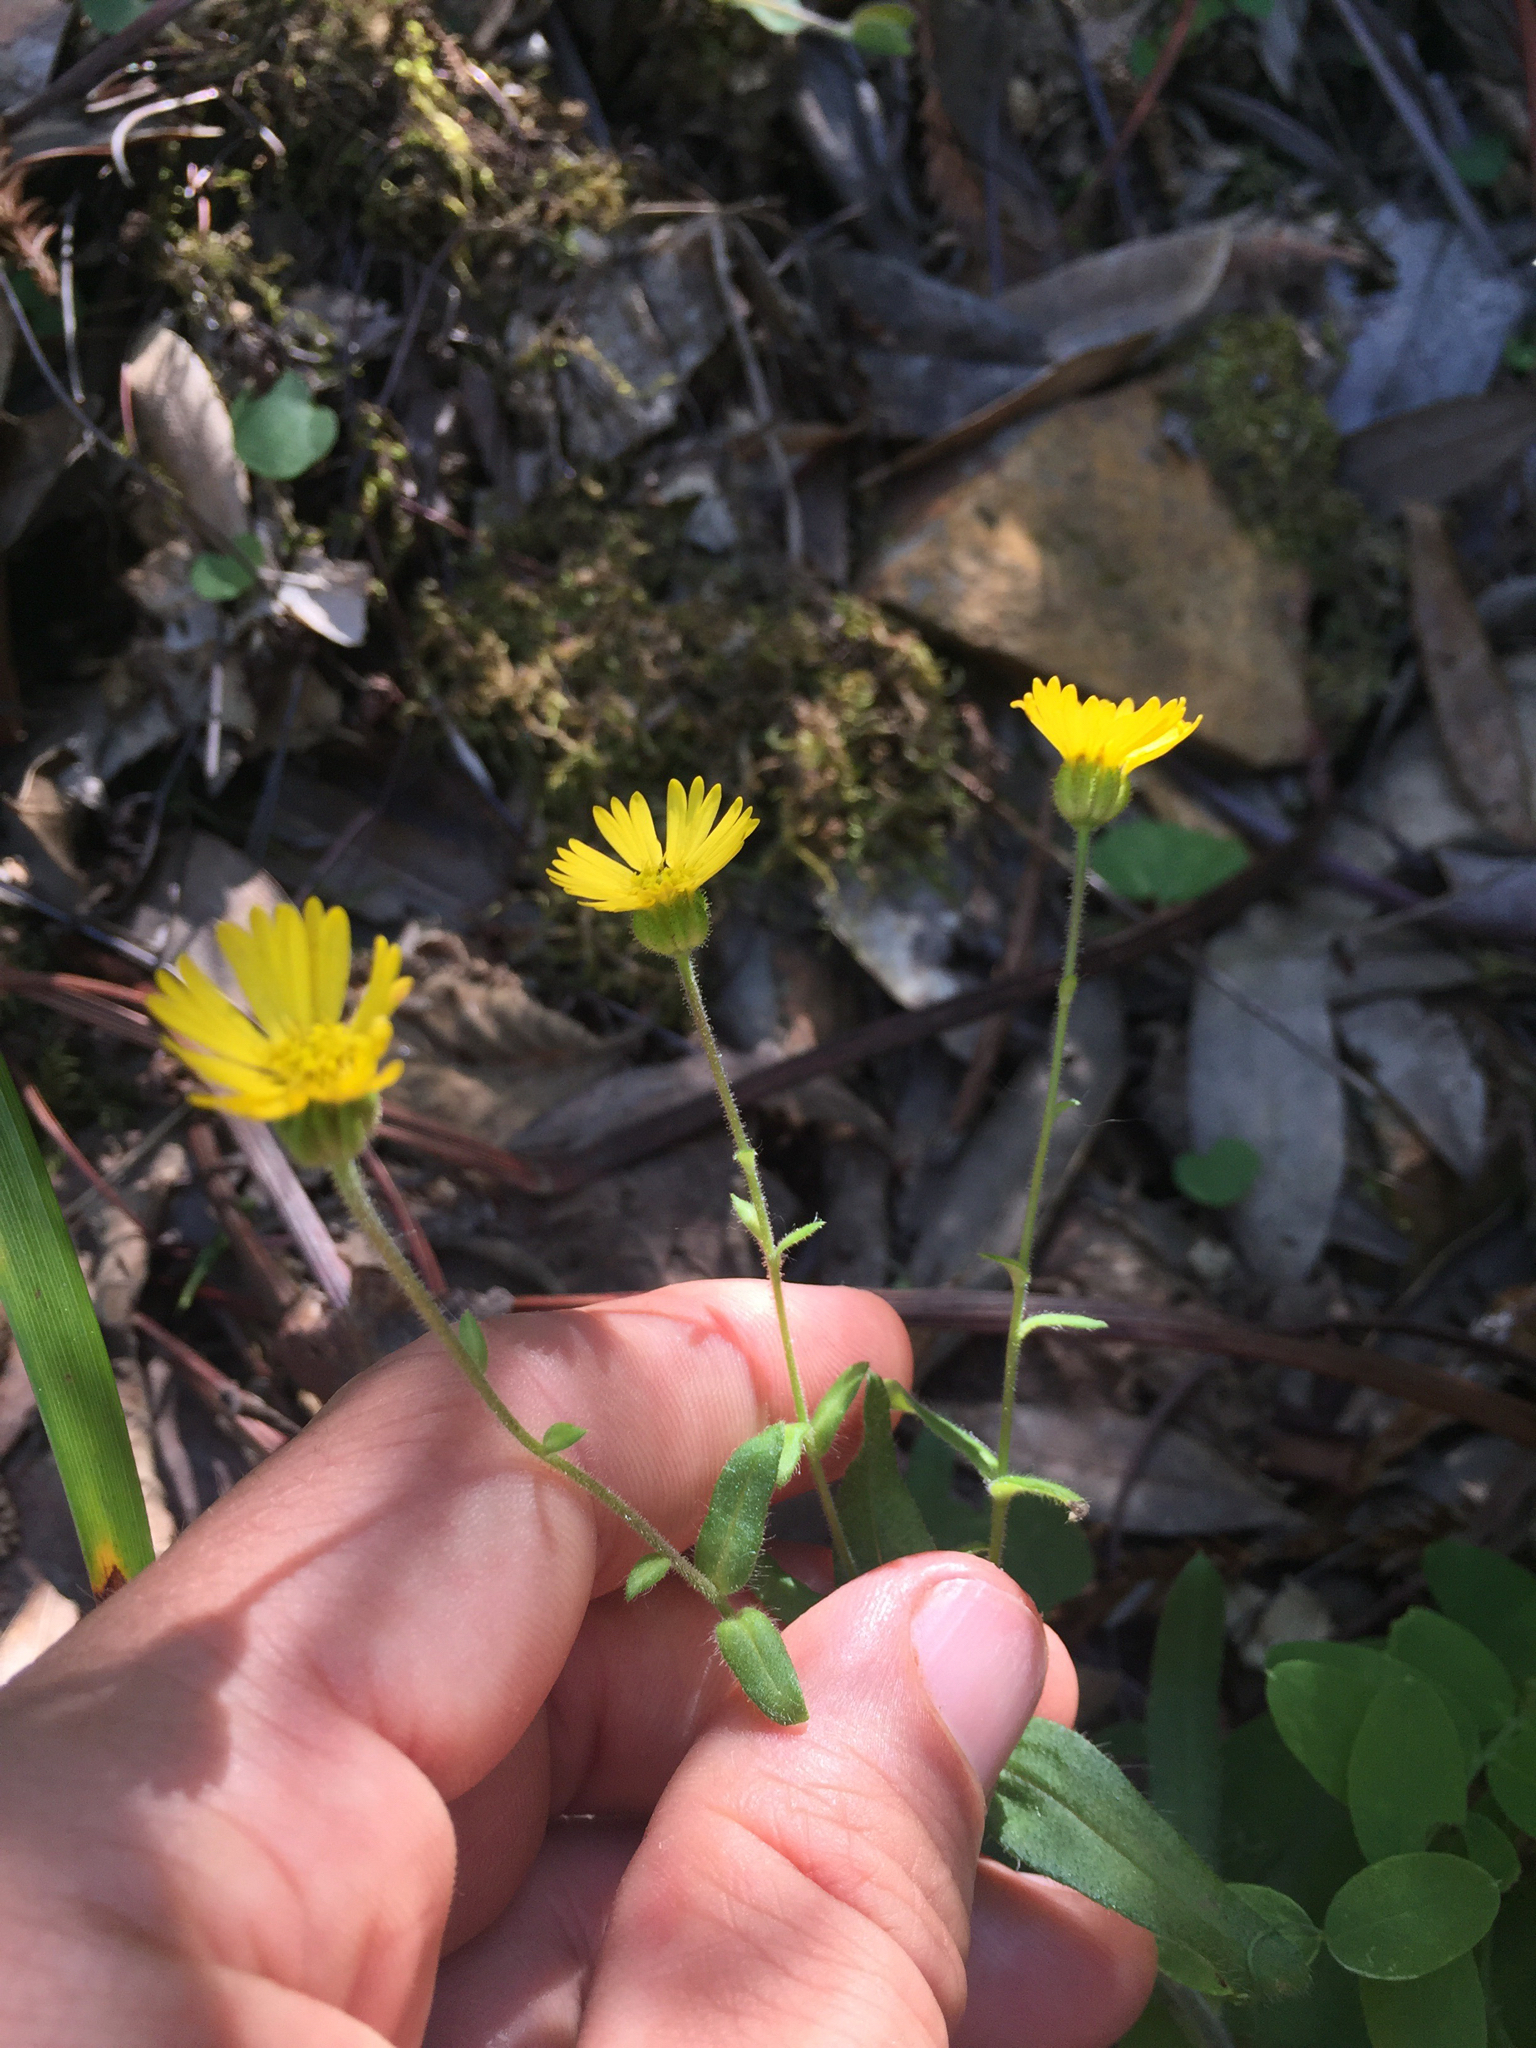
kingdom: Plantae
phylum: Tracheophyta
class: Magnoliopsida
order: Asterales
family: Asteraceae
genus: Anisocarpus
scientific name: Anisocarpus madioides
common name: Woodland madia
